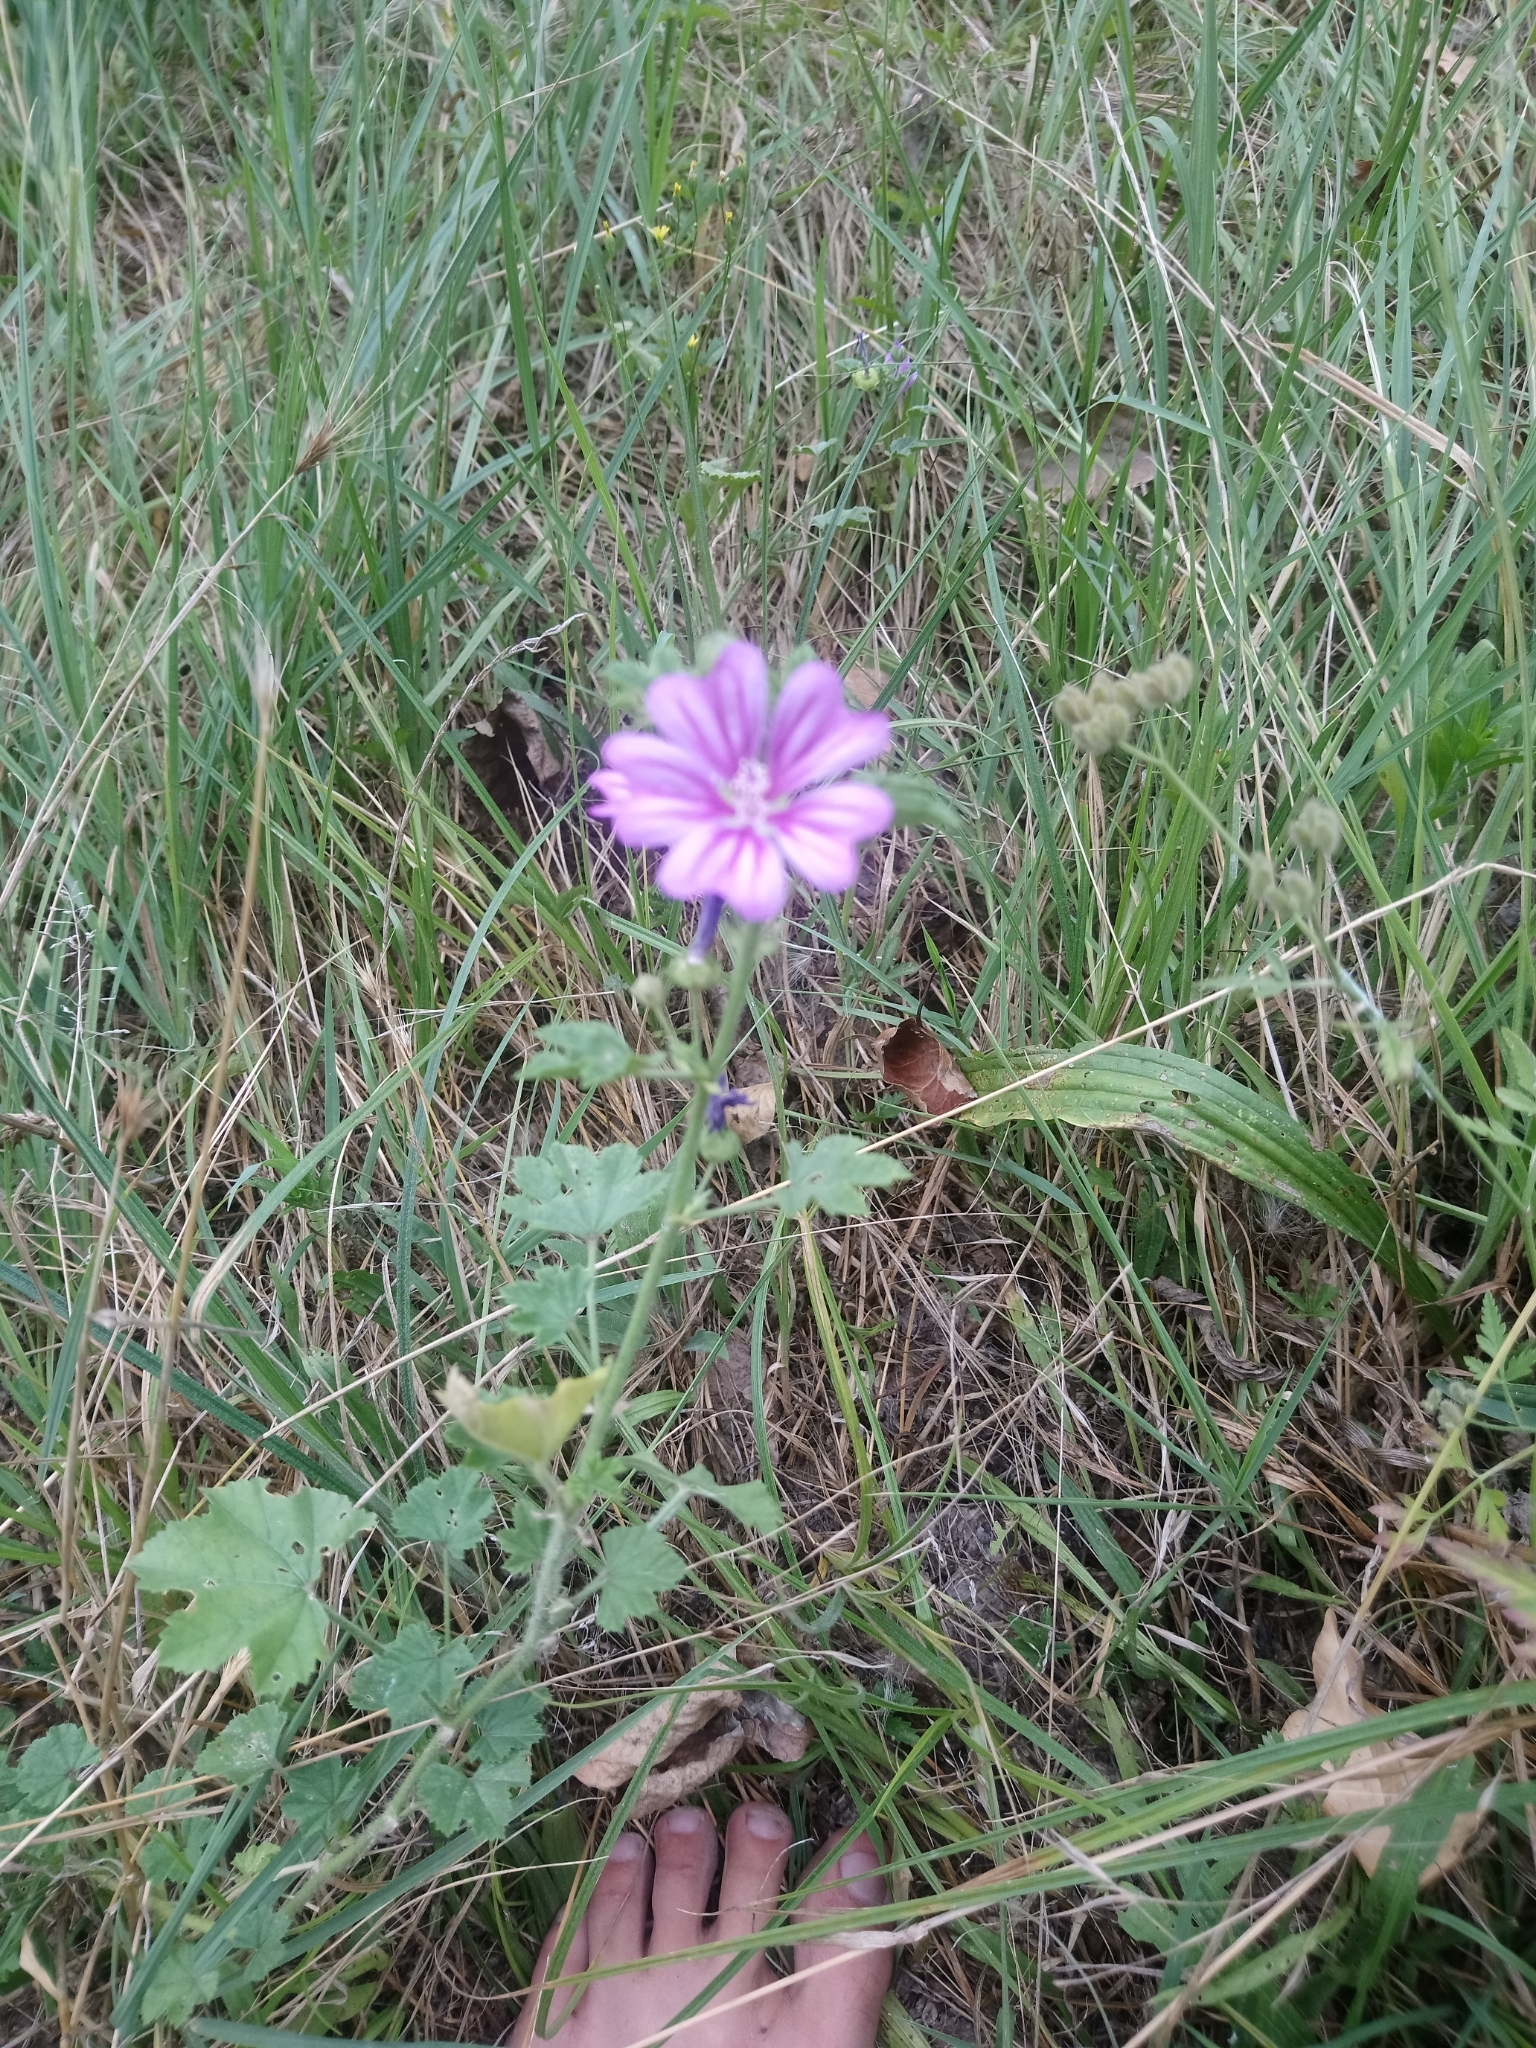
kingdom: Plantae
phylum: Tracheophyta
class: Magnoliopsida
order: Malvales
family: Malvaceae
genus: Malva
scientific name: Malva sylvestris
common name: Common mallow
